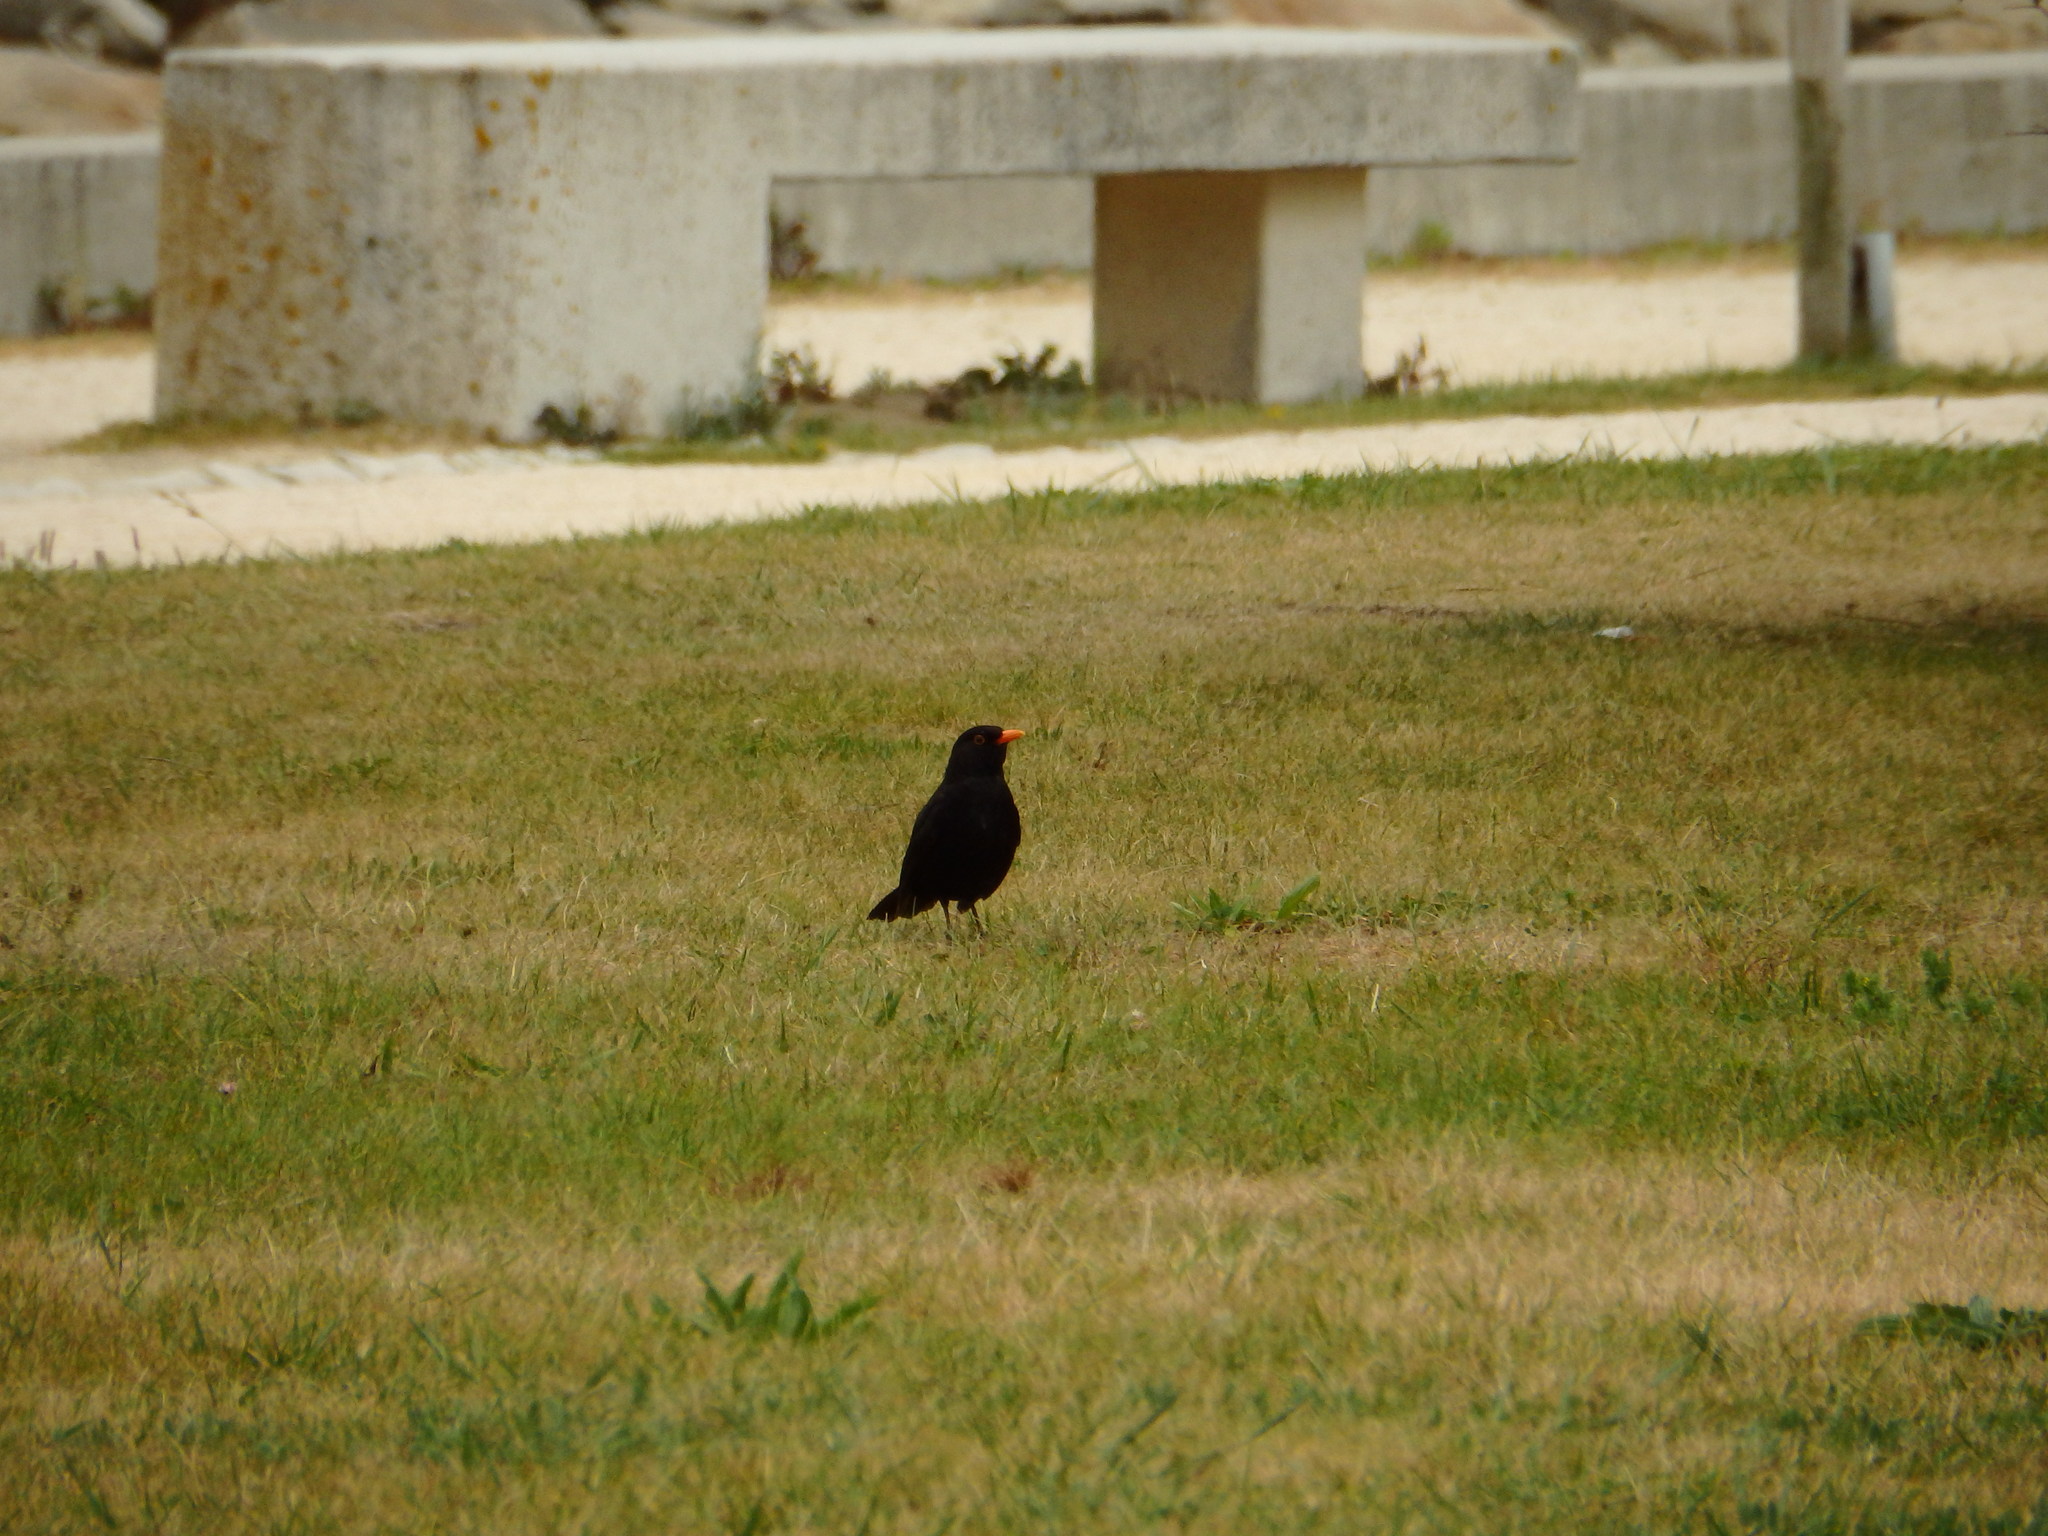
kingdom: Animalia
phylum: Chordata
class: Aves
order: Passeriformes
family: Turdidae
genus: Turdus
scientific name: Turdus merula
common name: Common blackbird
